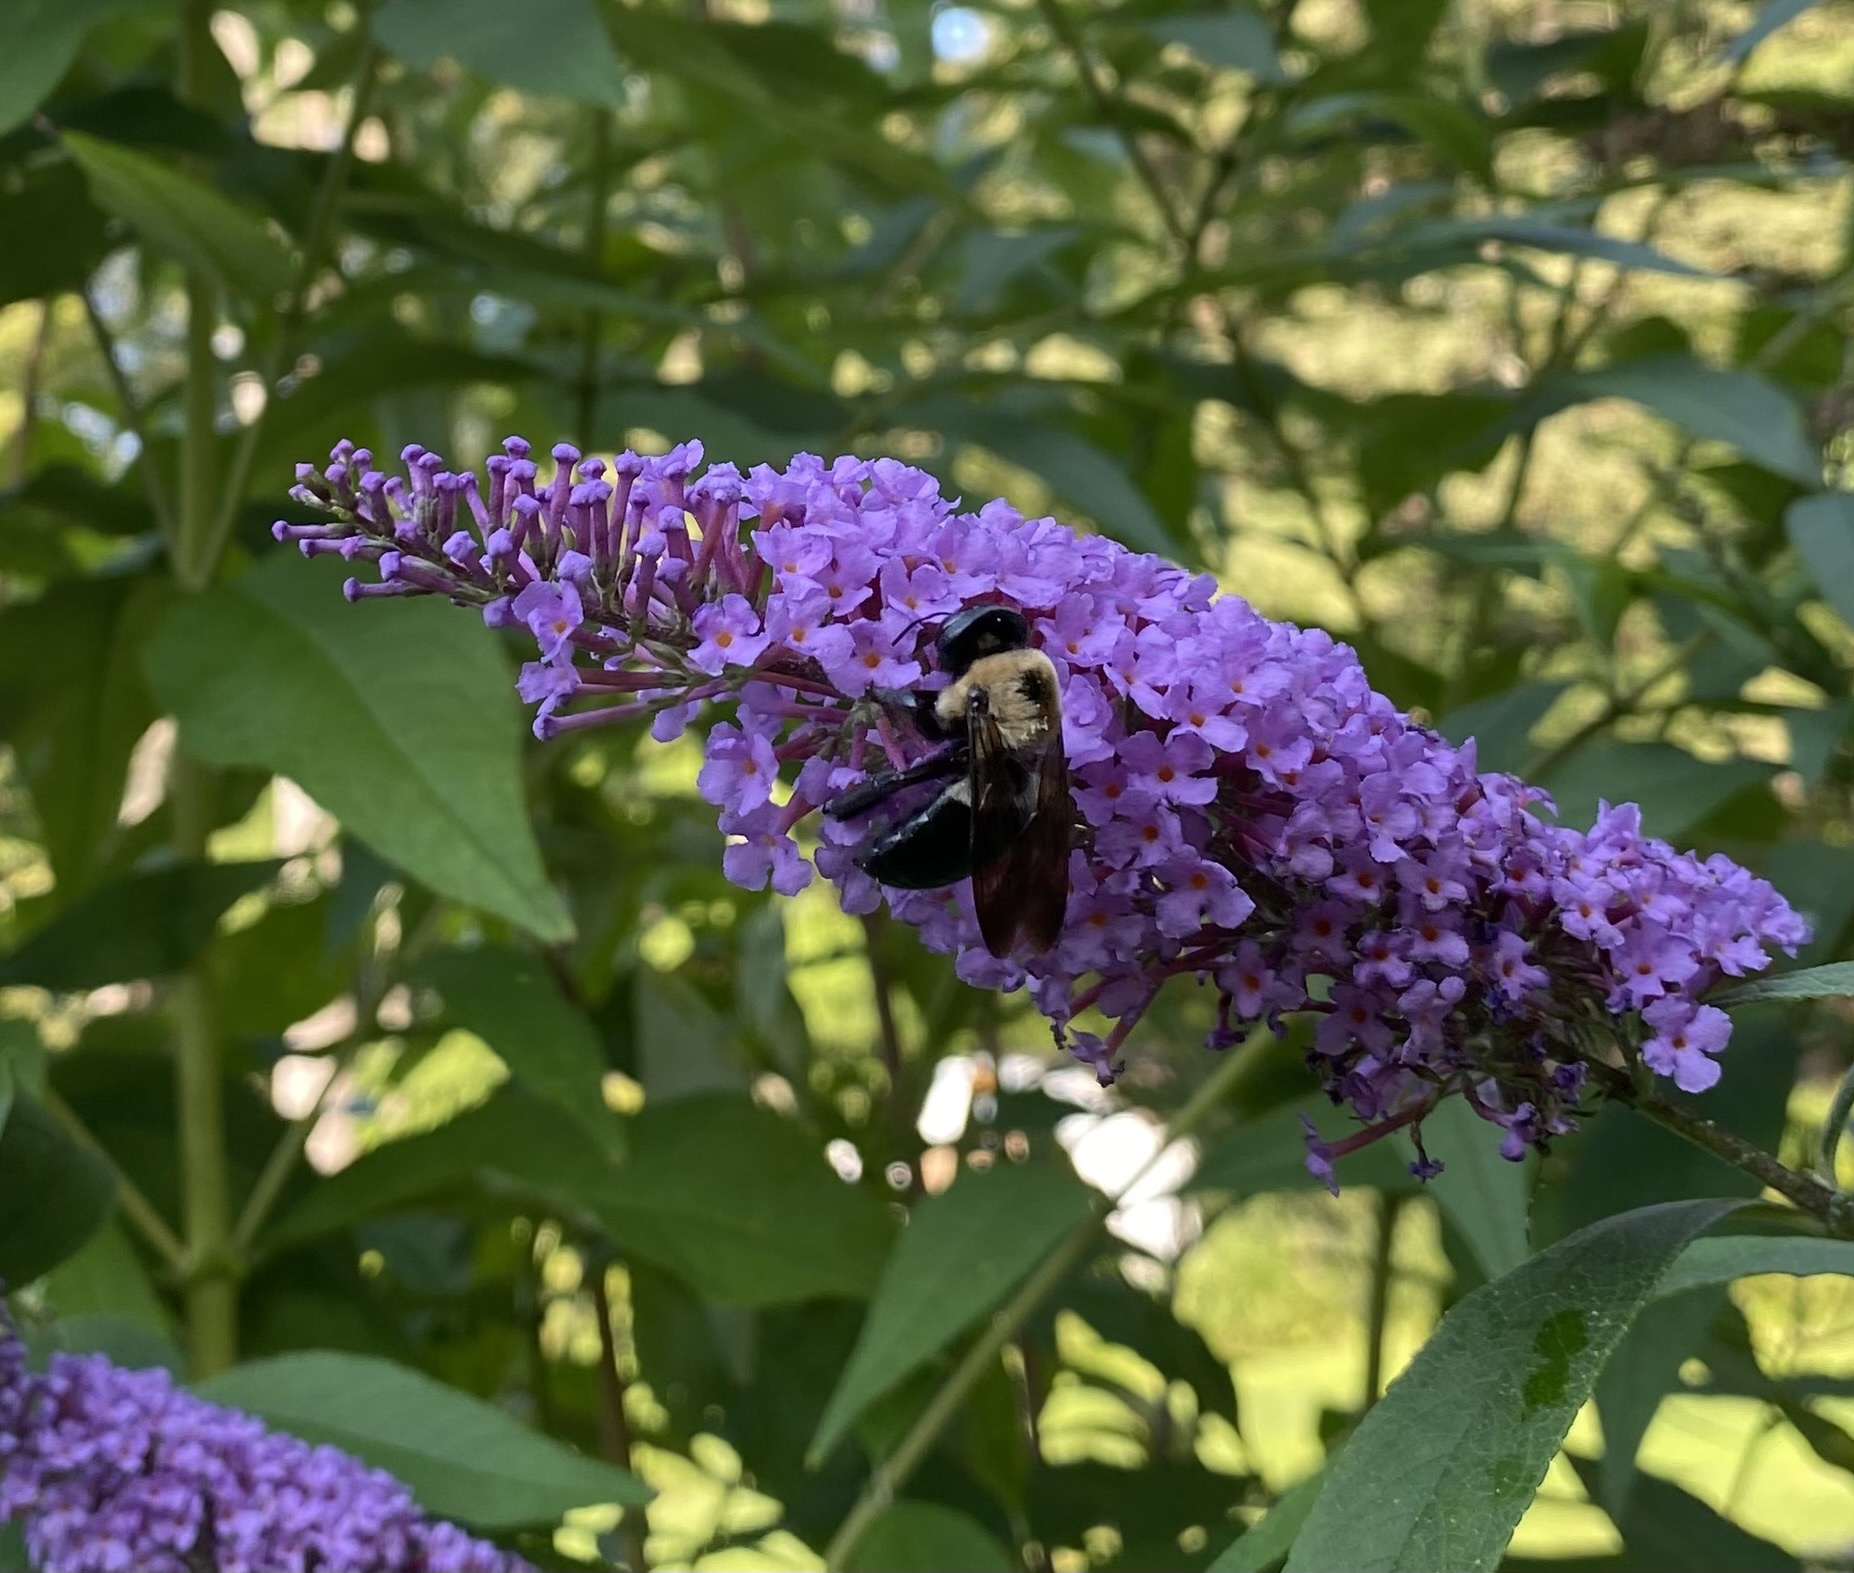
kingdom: Animalia
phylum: Arthropoda
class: Insecta
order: Hymenoptera
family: Apidae
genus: Xylocopa
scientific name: Xylocopa virginica
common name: Carpenter bee
